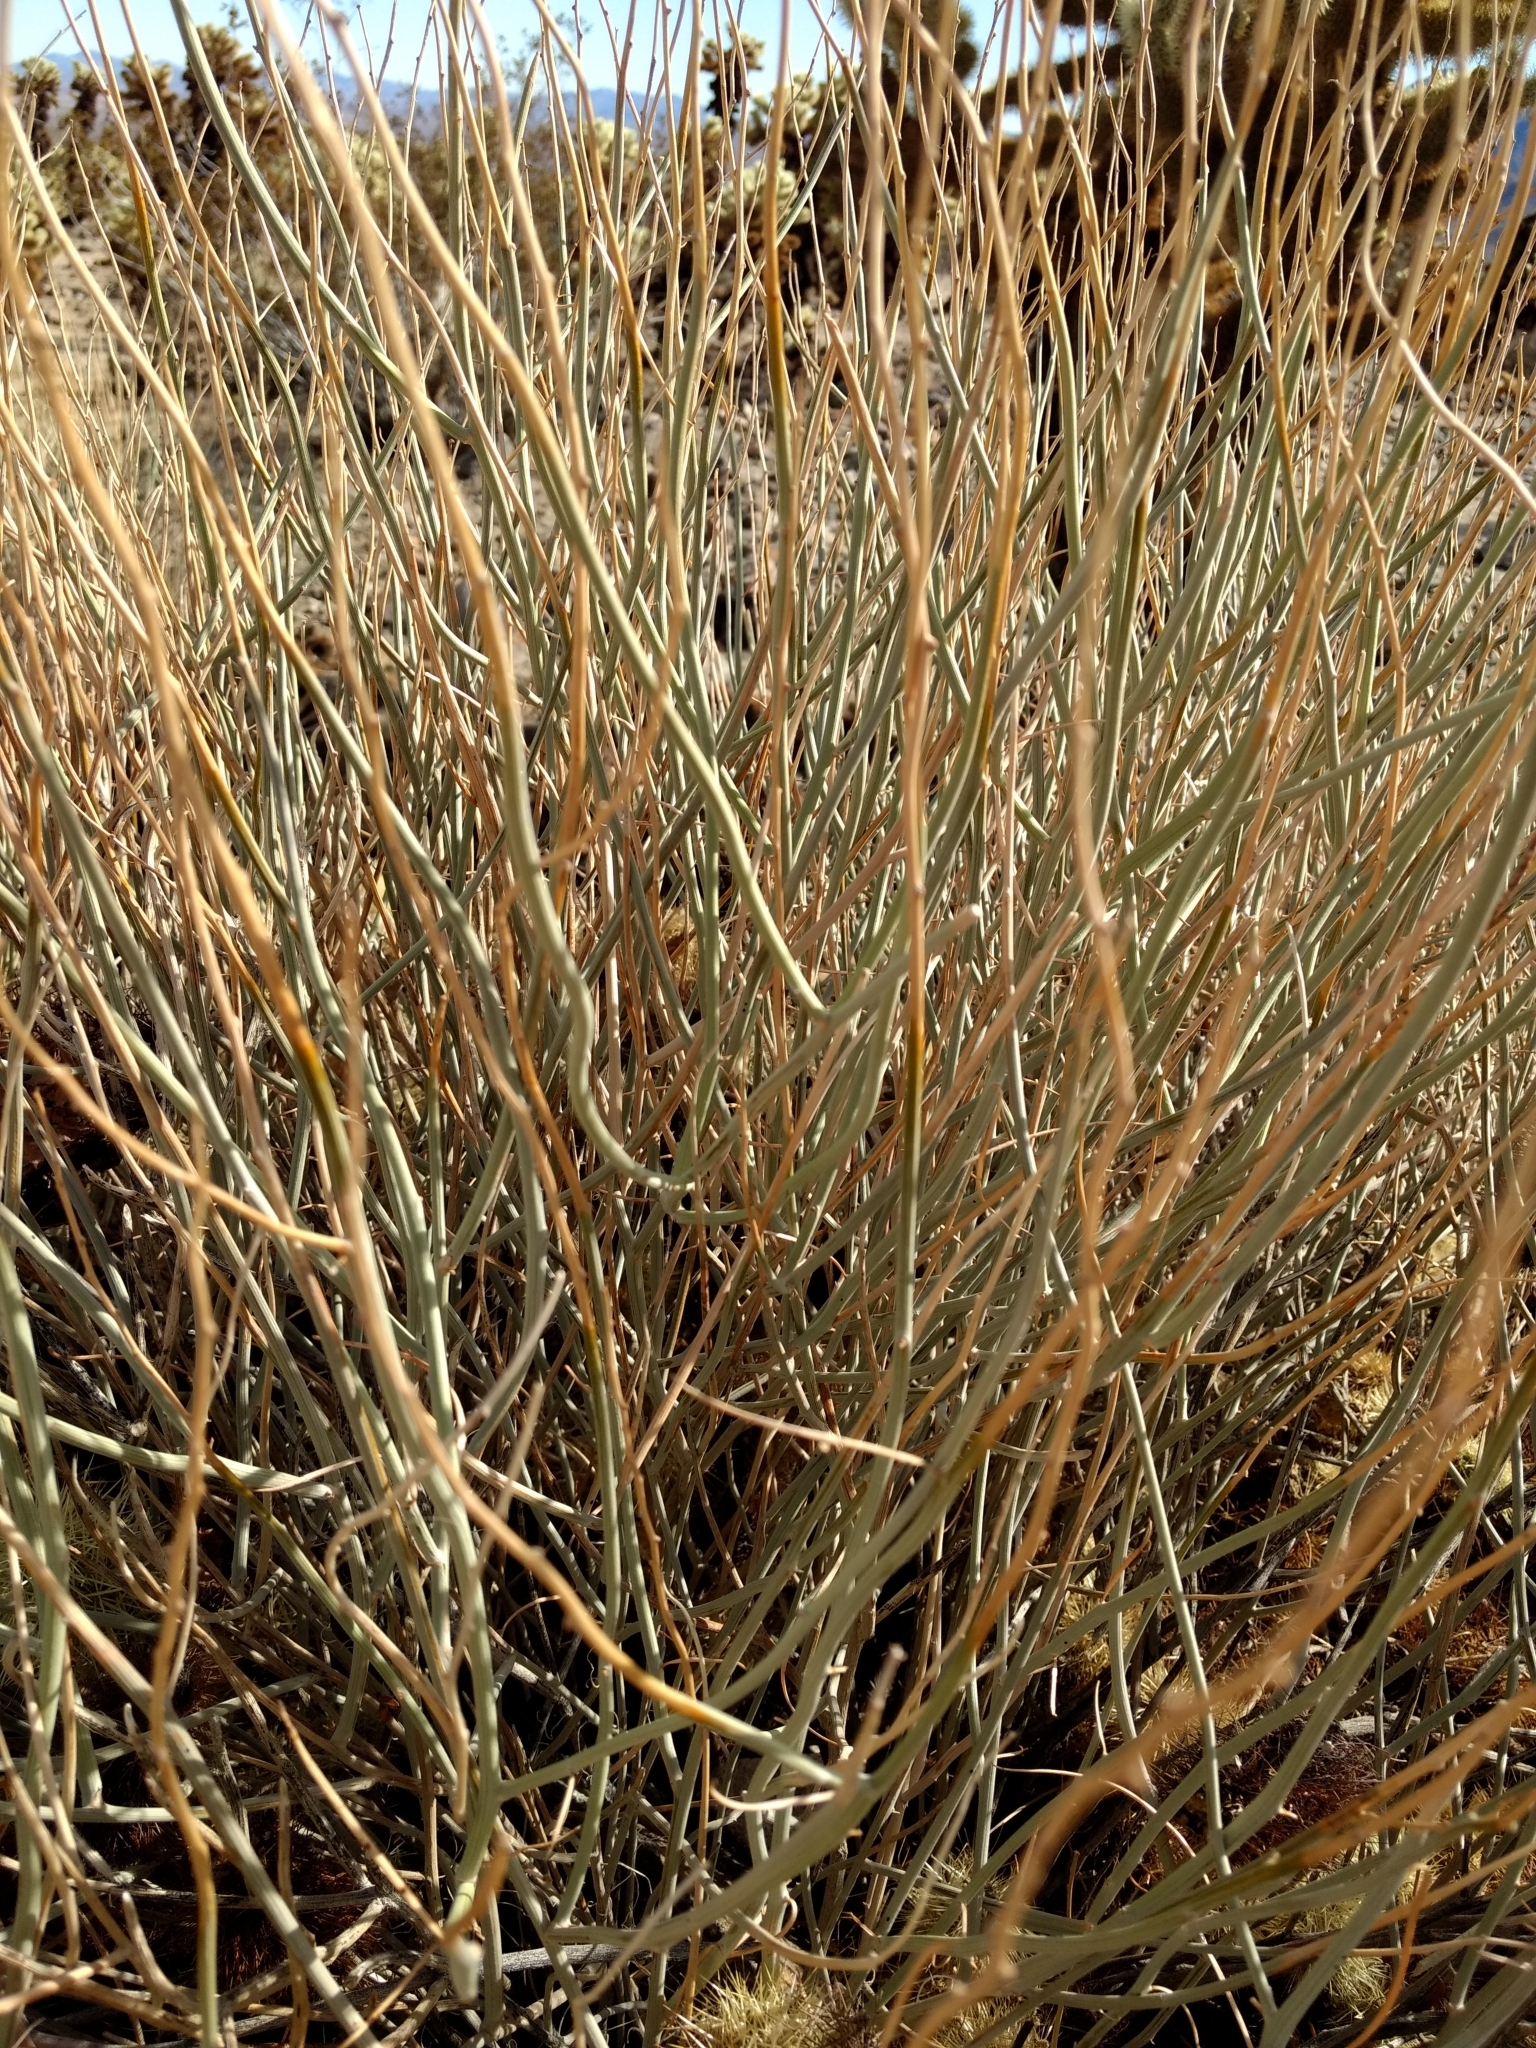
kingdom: Plantae
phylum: Tracheophyta
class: Magnoliopsida
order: Fabales
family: Fabaceae
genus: Senna
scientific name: Senna armata
